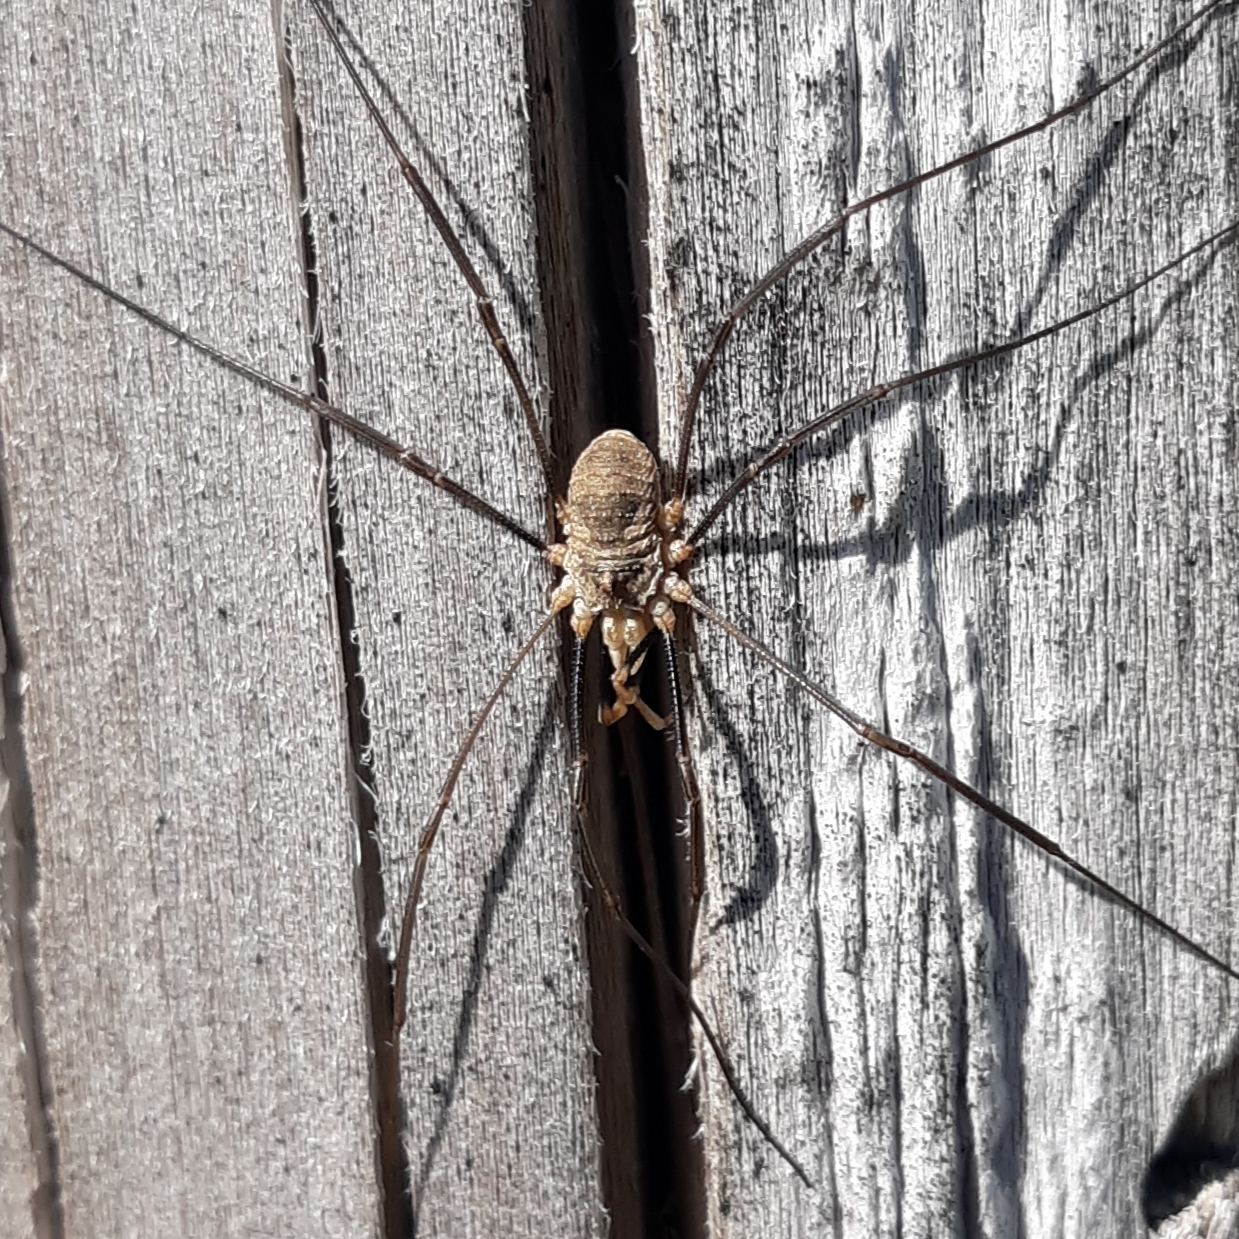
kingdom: Animalia
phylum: Arthropoda
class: Arachnida
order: Opiliones
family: Phalangiidae
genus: Phalangium
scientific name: Phalangium opilio
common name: Daddy longleg
